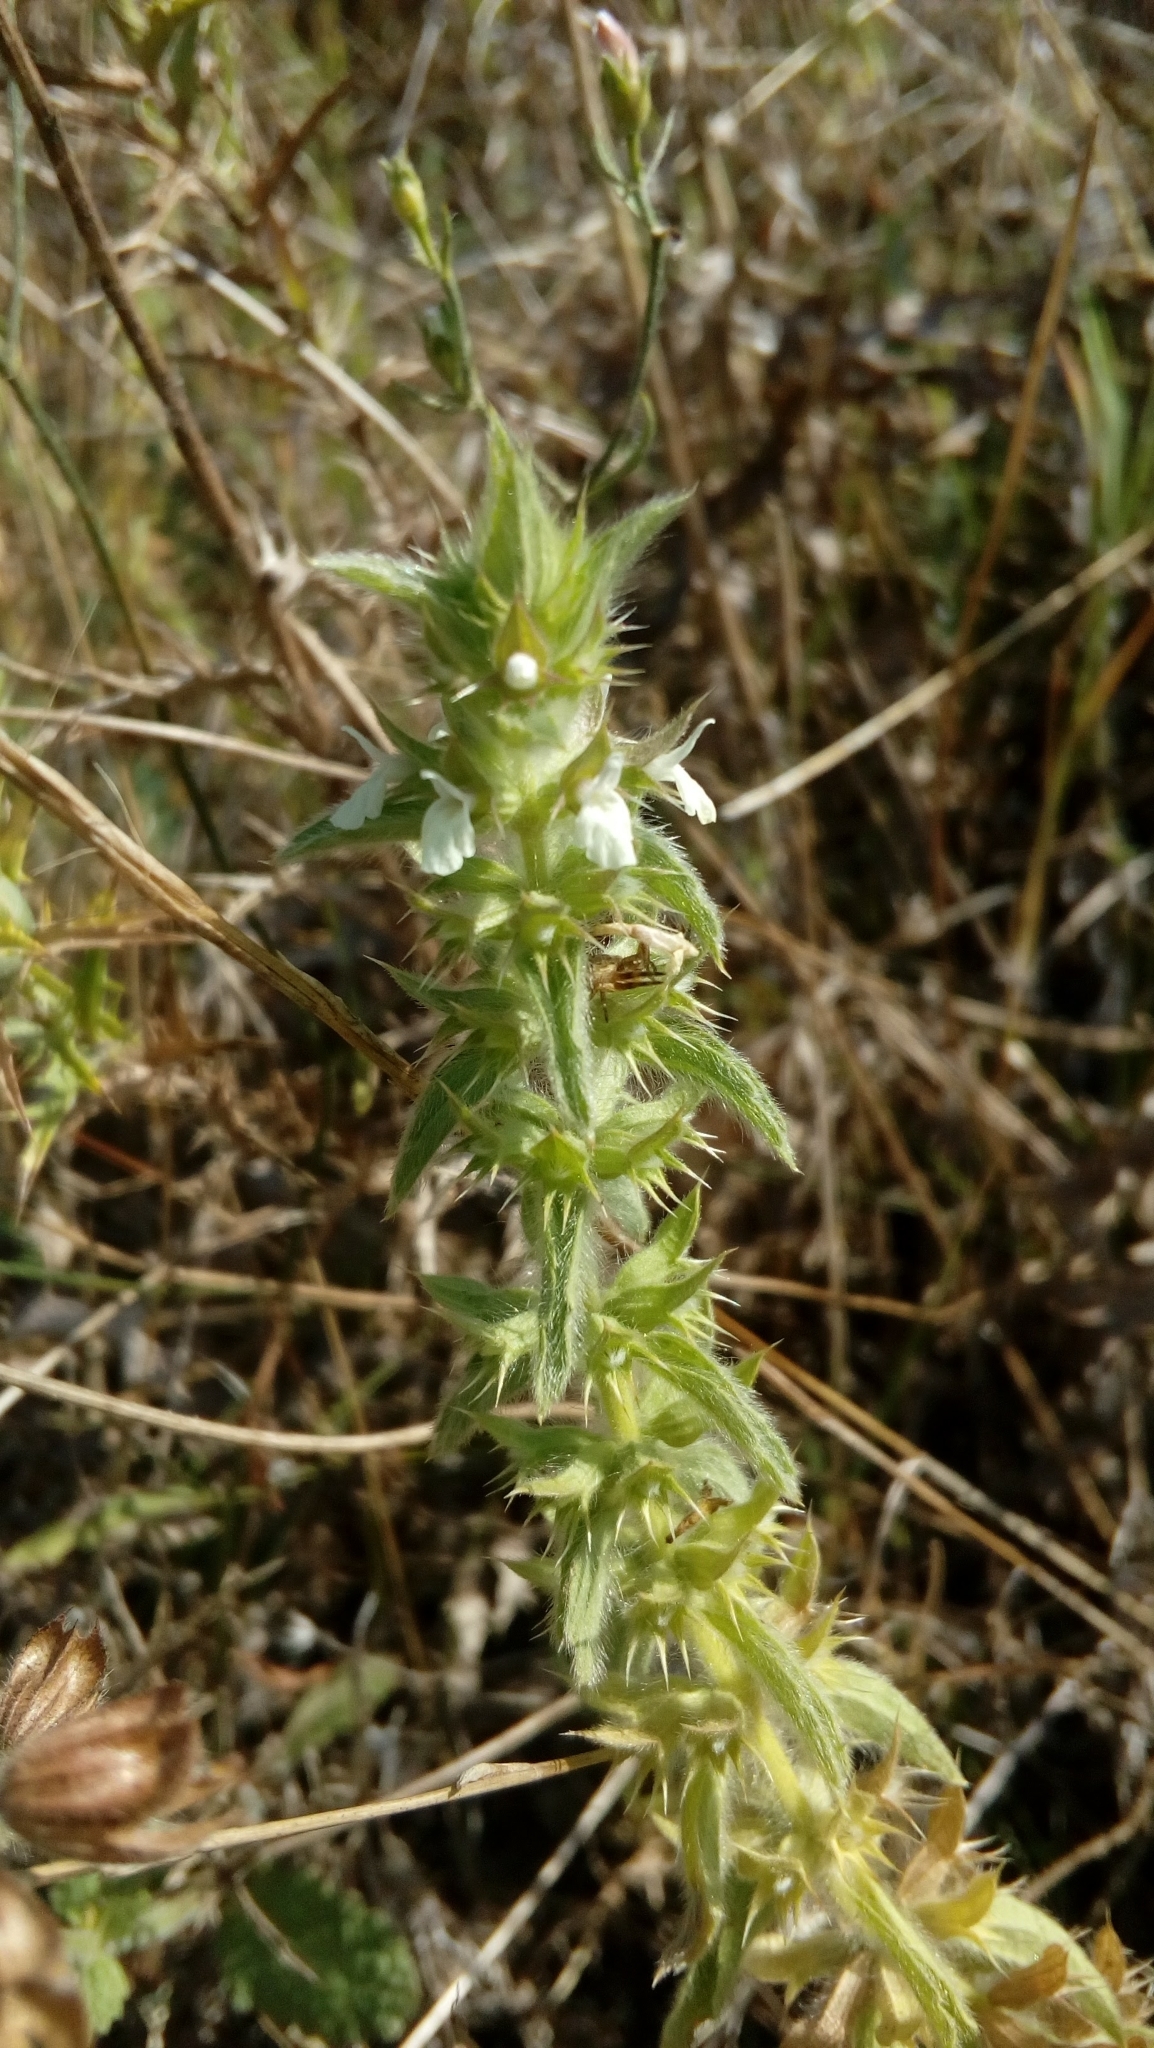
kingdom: Plantae
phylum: Tracheophyta
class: Magnoliopsida
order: Lamiales
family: Lamiaceae
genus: Sideritis
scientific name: Sideritis romana
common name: Simplebeak ironwort
